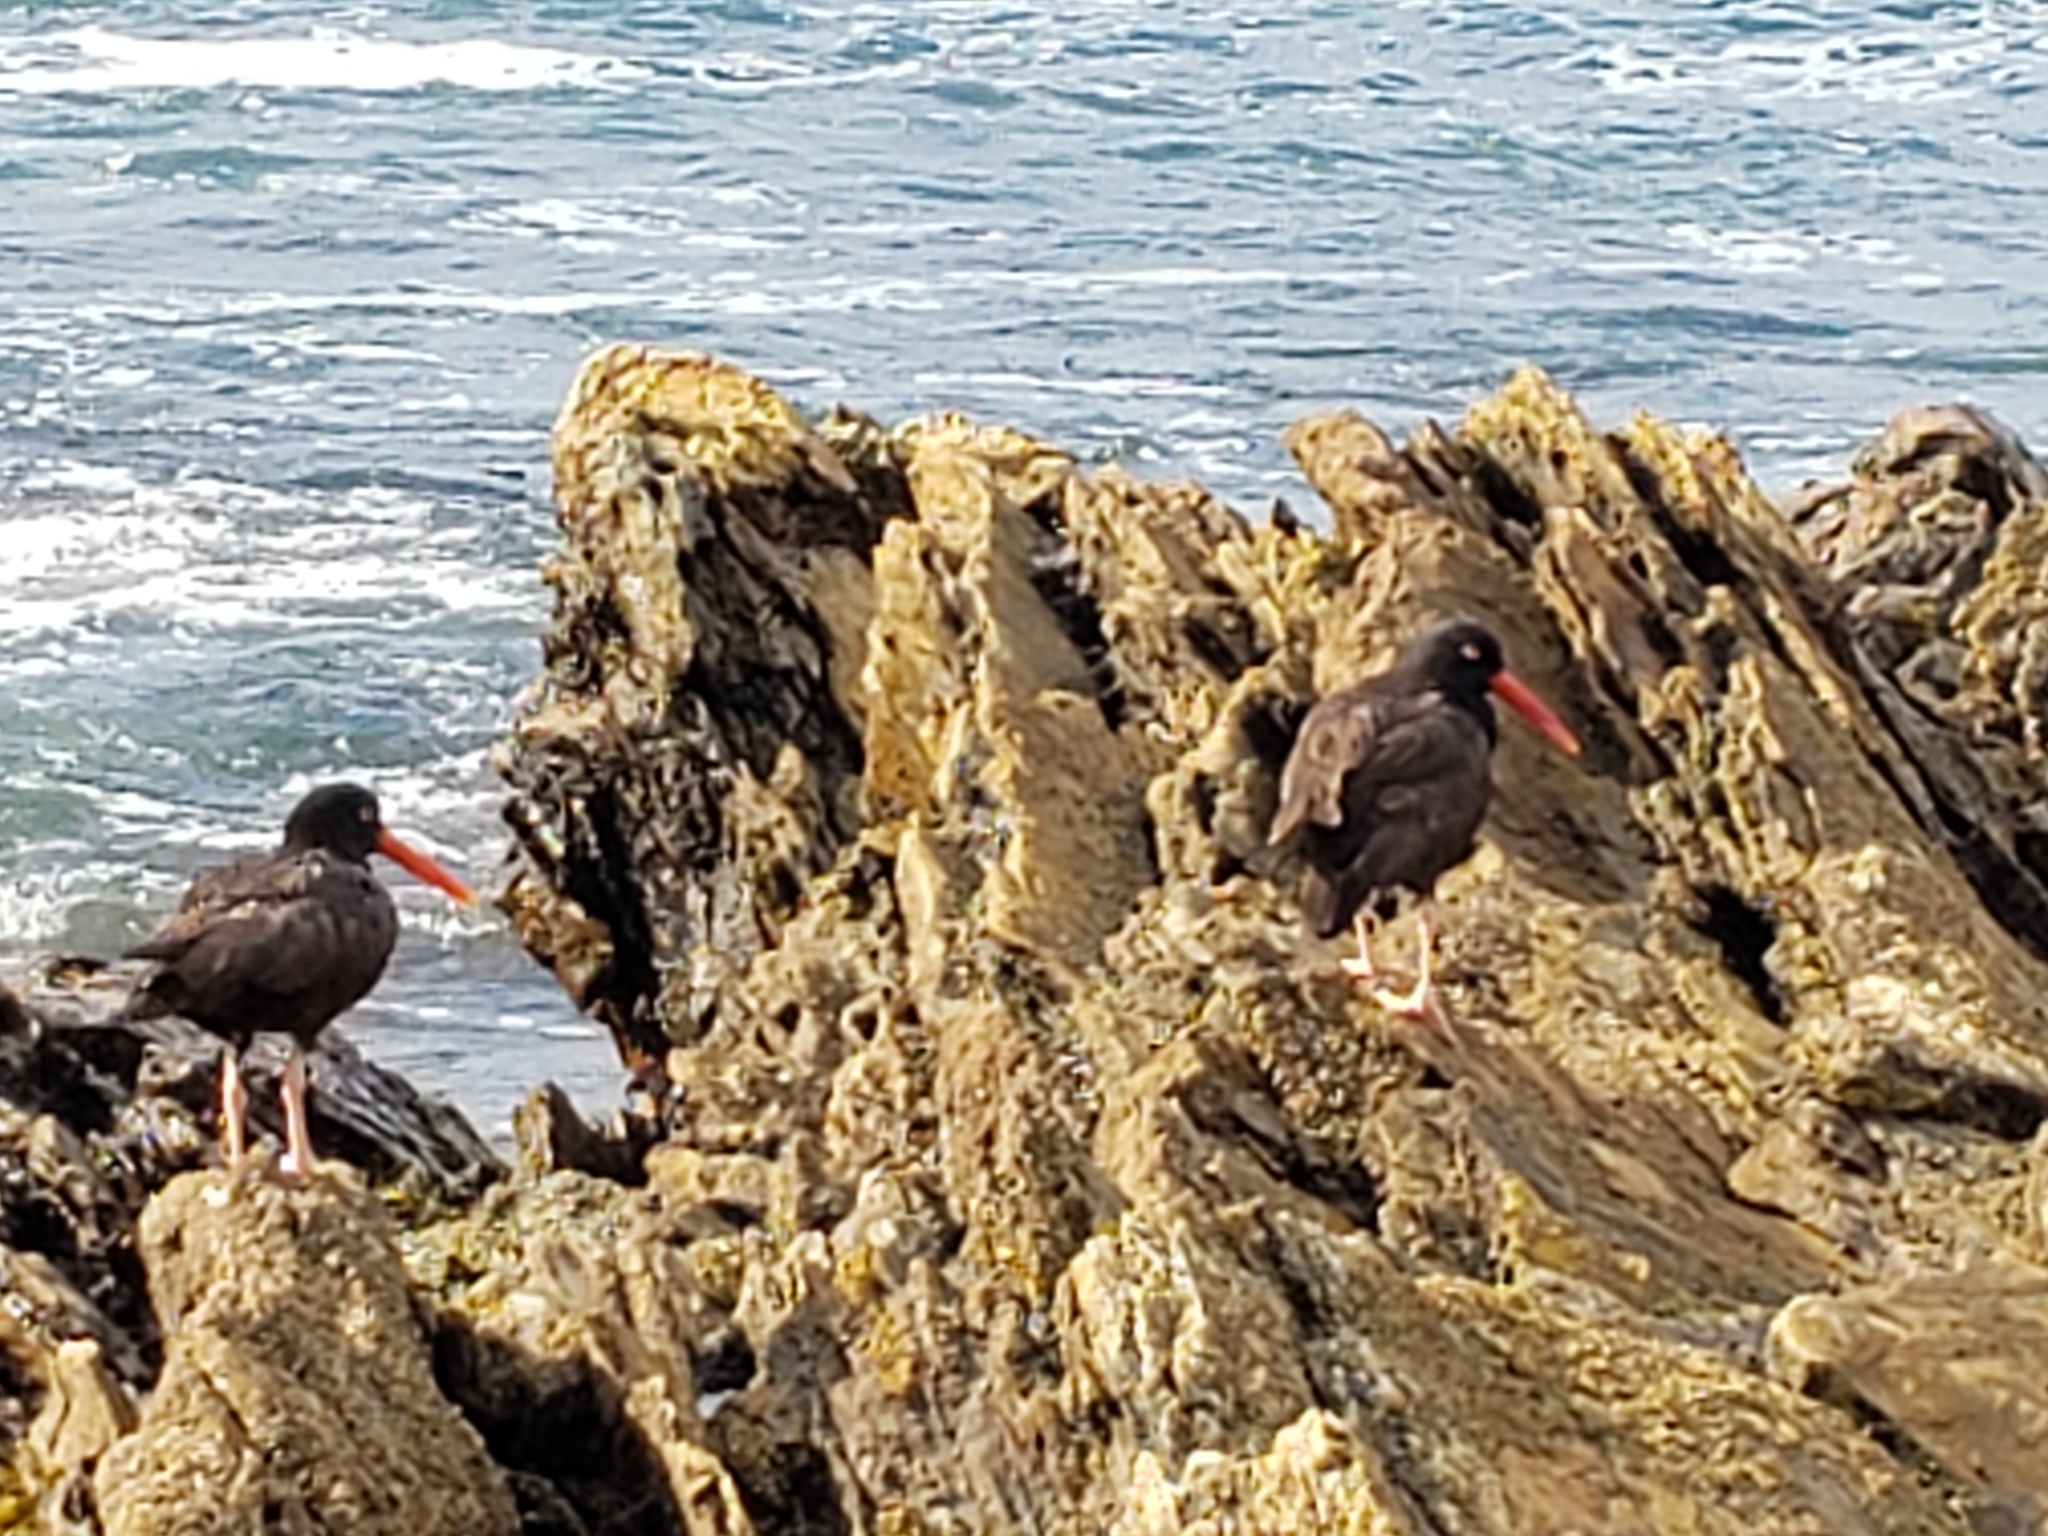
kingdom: Animalia
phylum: Chordata
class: Aves
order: Charadriiformes
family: Haematopodidae
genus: Haematopus
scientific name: Haematopus bachmani
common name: Black oystercatcher
